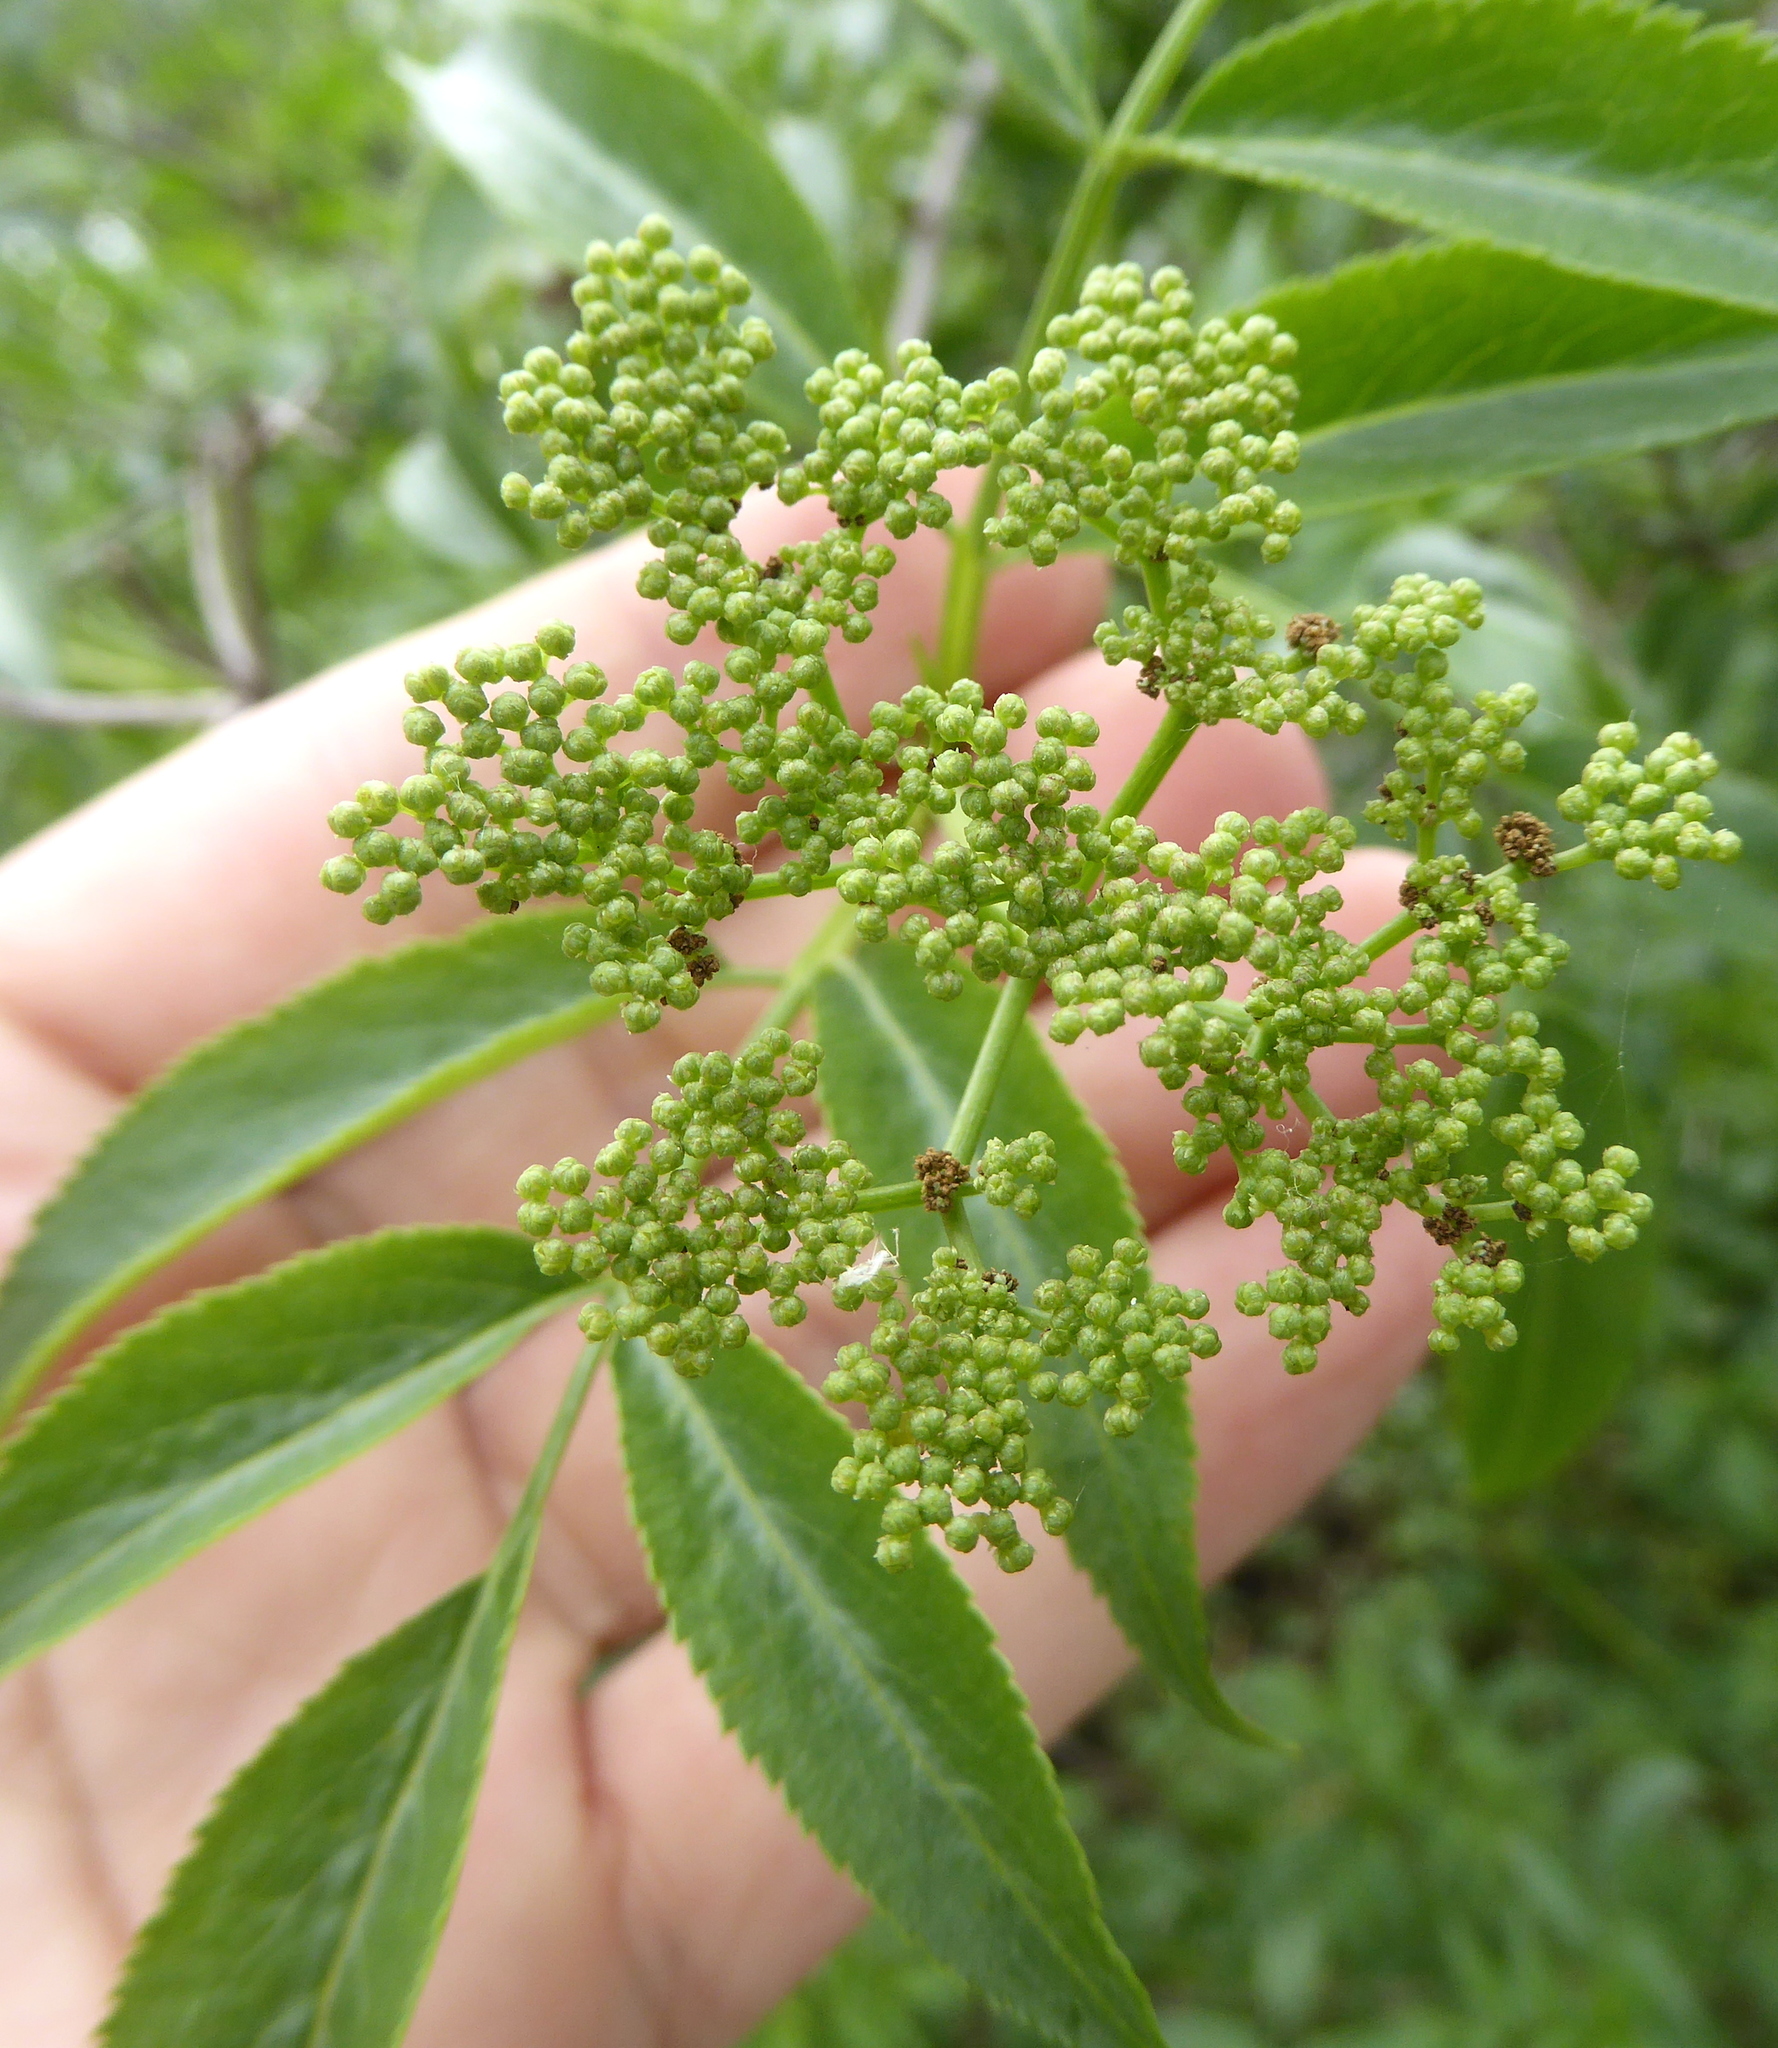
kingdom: Plantae
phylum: Tracheophyta
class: Magnoliopsida
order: Dipsacales
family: Viburnaceae
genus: Sambucus
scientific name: Sambucus cerulea
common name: Blue elder
